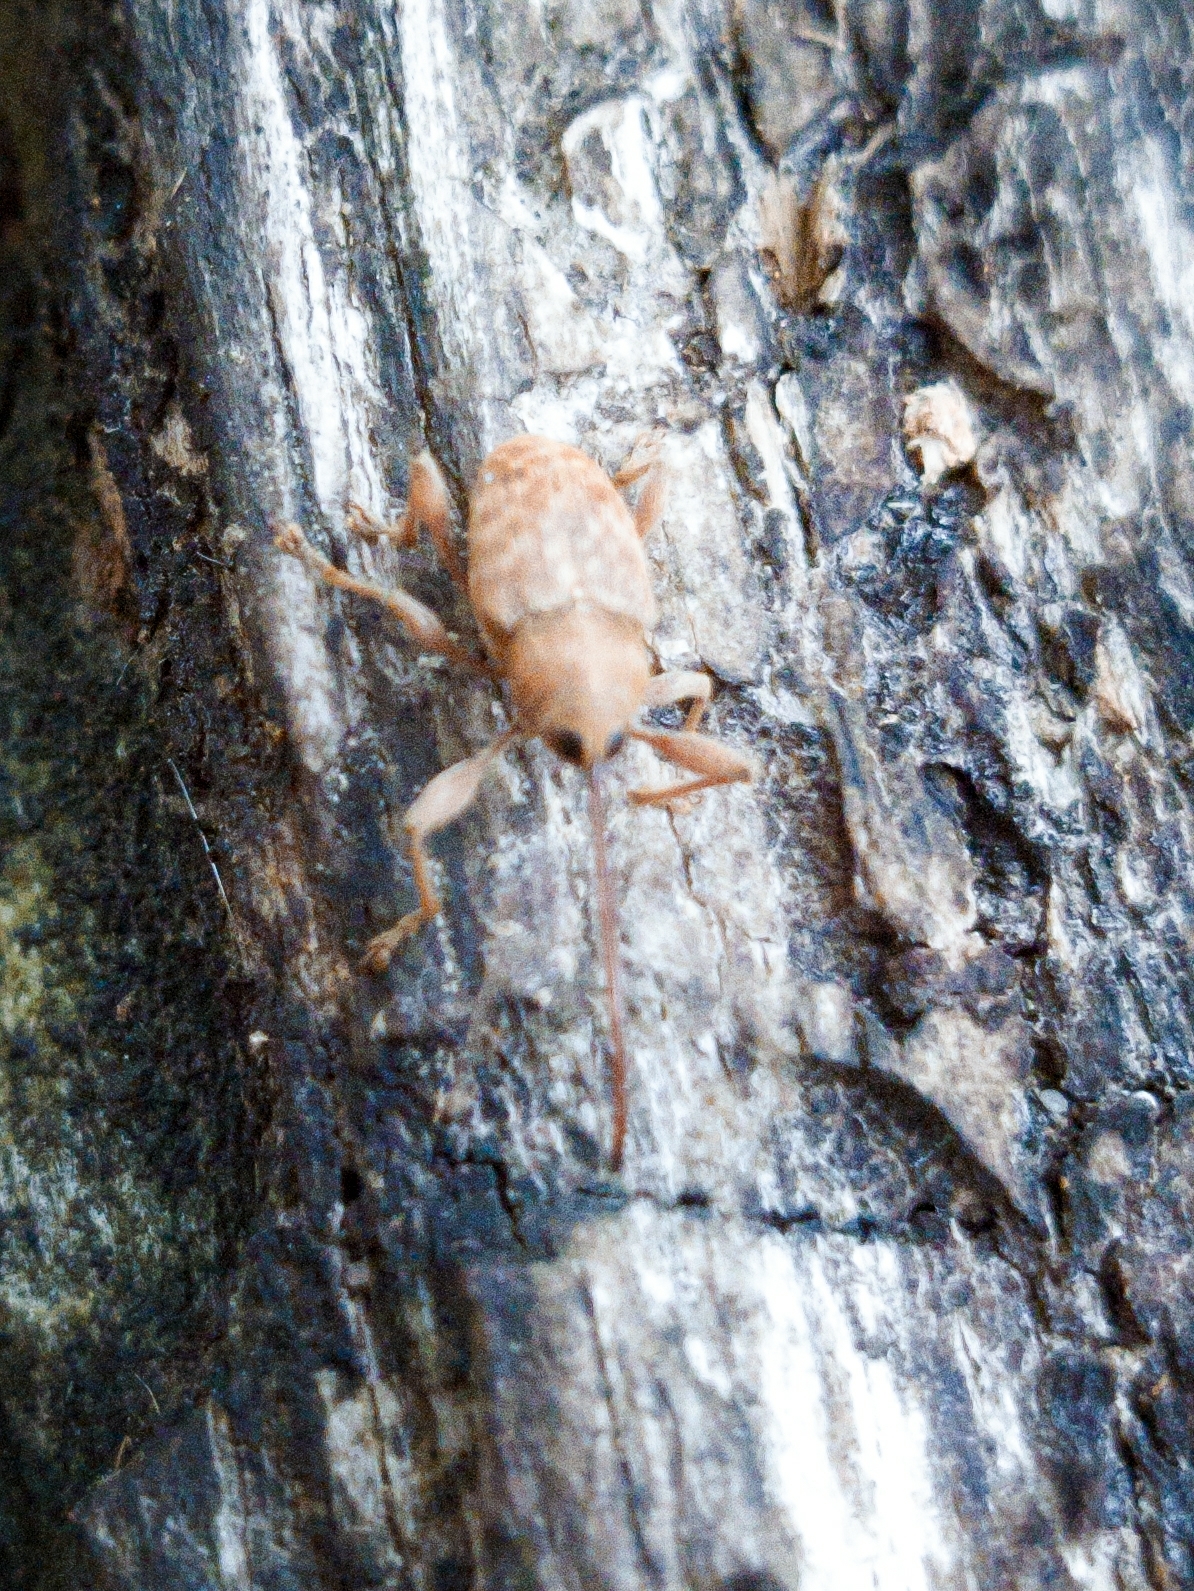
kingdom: Animalia
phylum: Arthropoda
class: Insecta
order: Coleoptera
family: Curculionidae
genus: Curculio
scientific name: Curculio elephas
